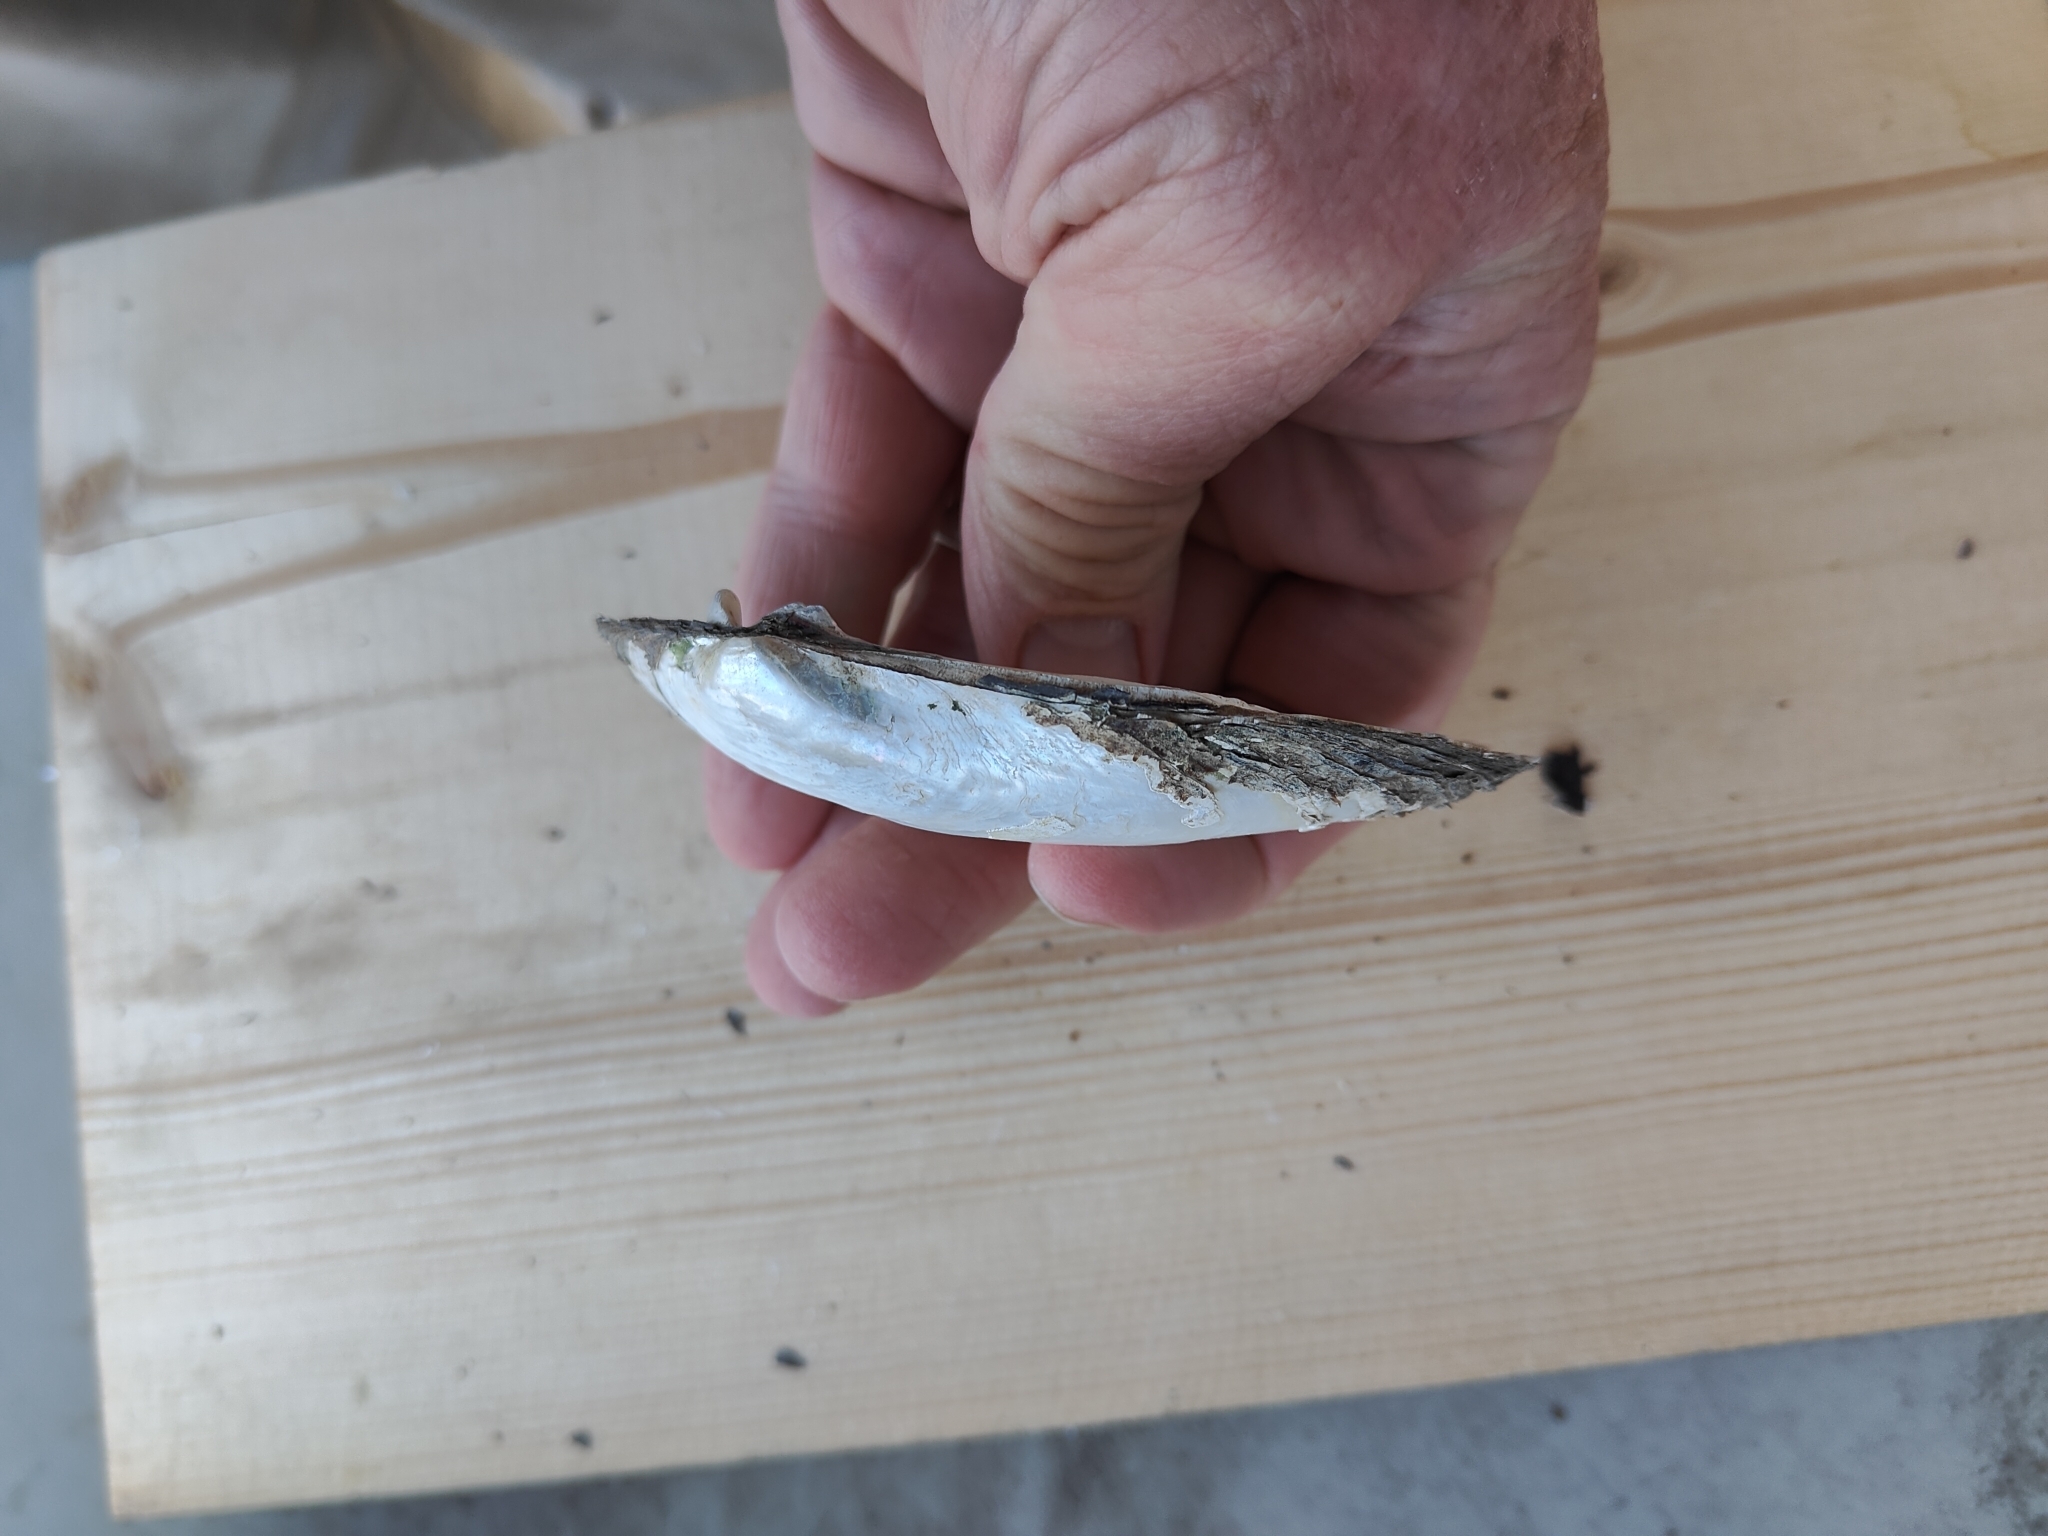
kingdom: Animalia
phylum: Mollusca
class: Bivalvia
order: Unionida
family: Unionidae
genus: Lampsilis
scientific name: Lampsilis siliquoidea
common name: Fatmucket
